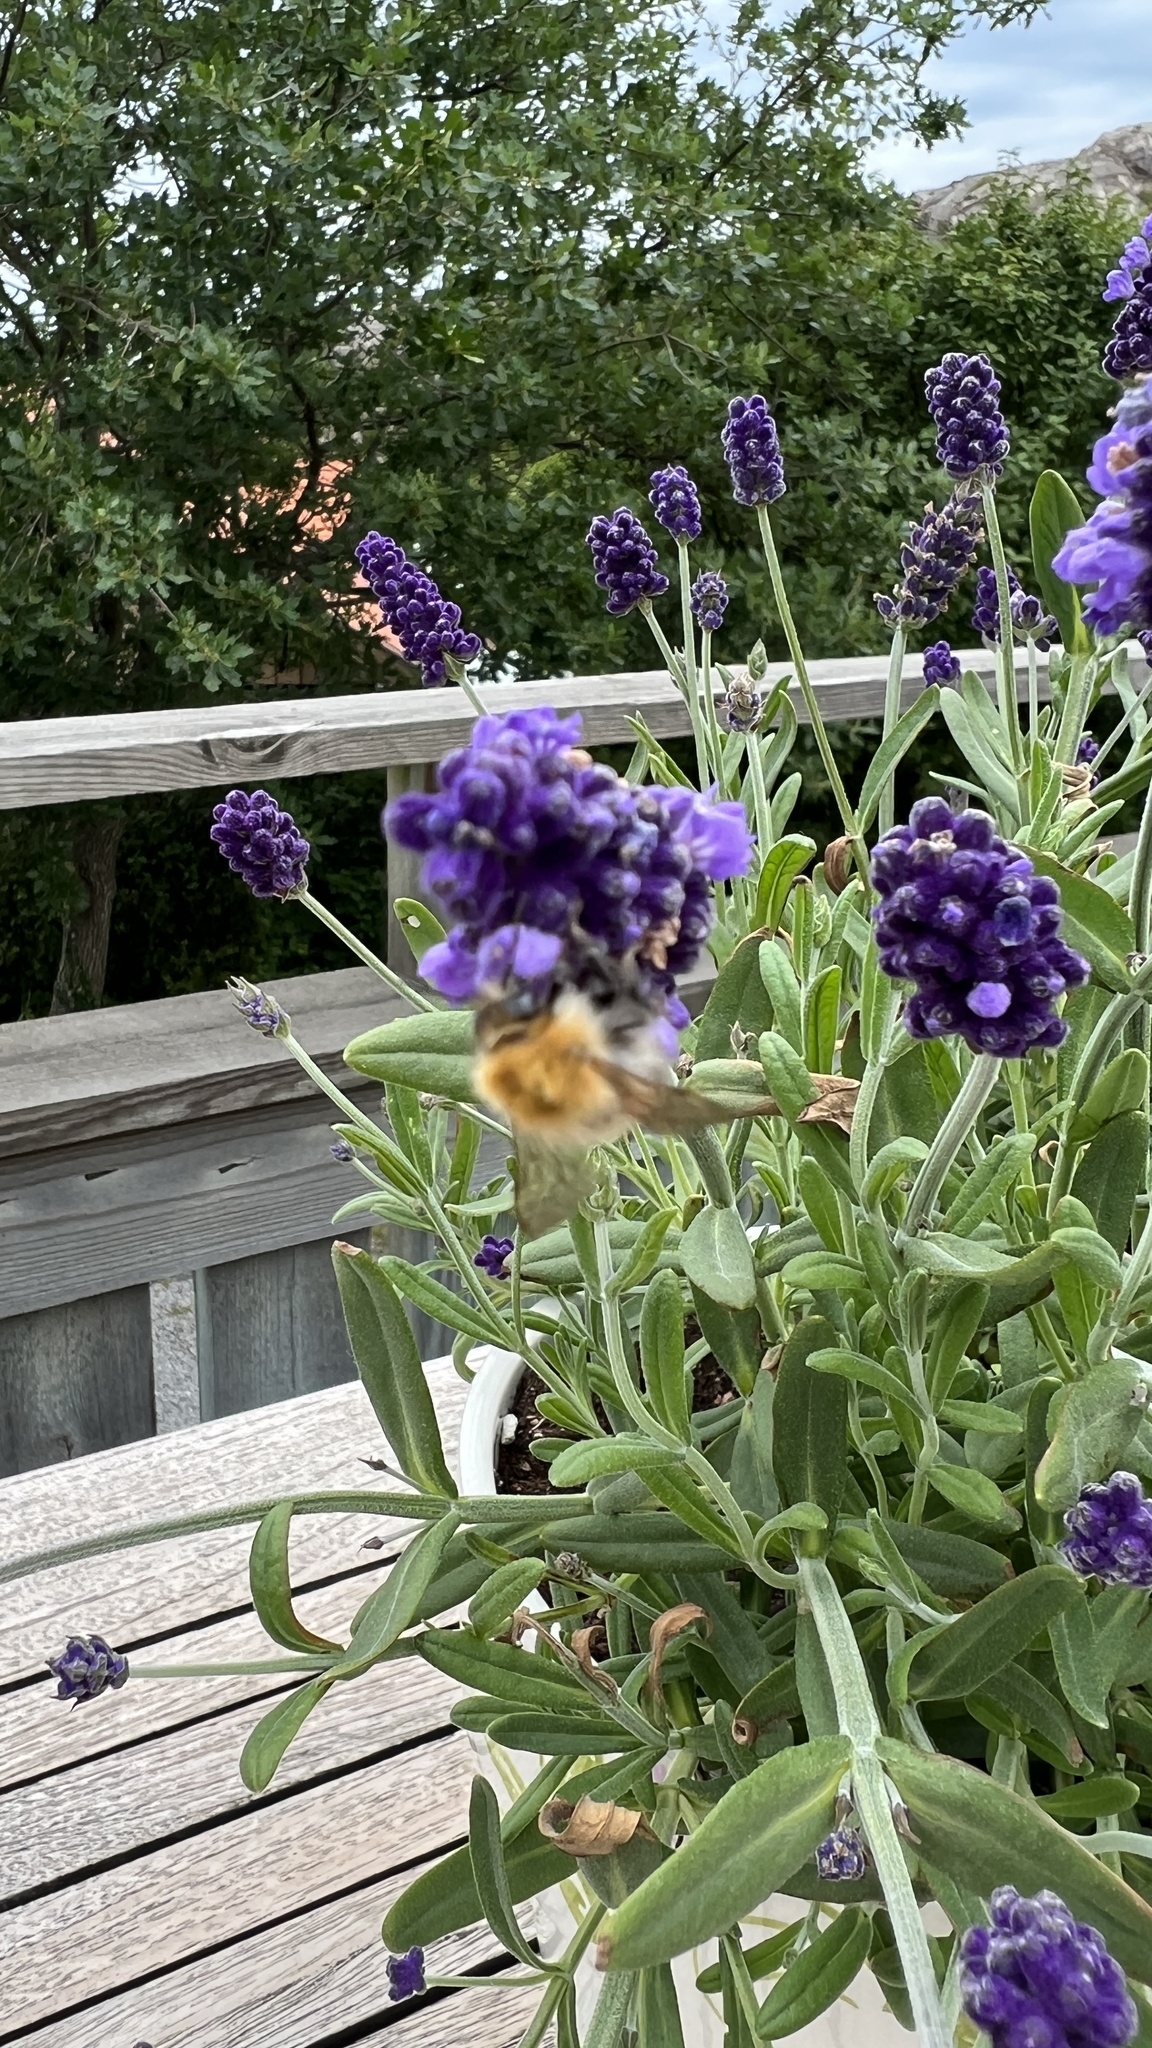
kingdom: Animalia
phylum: Arthropoda
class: Insecta
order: Hymenoptera
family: Apidae
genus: Bombus
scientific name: Bombus pascuorum
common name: Common carder bee
